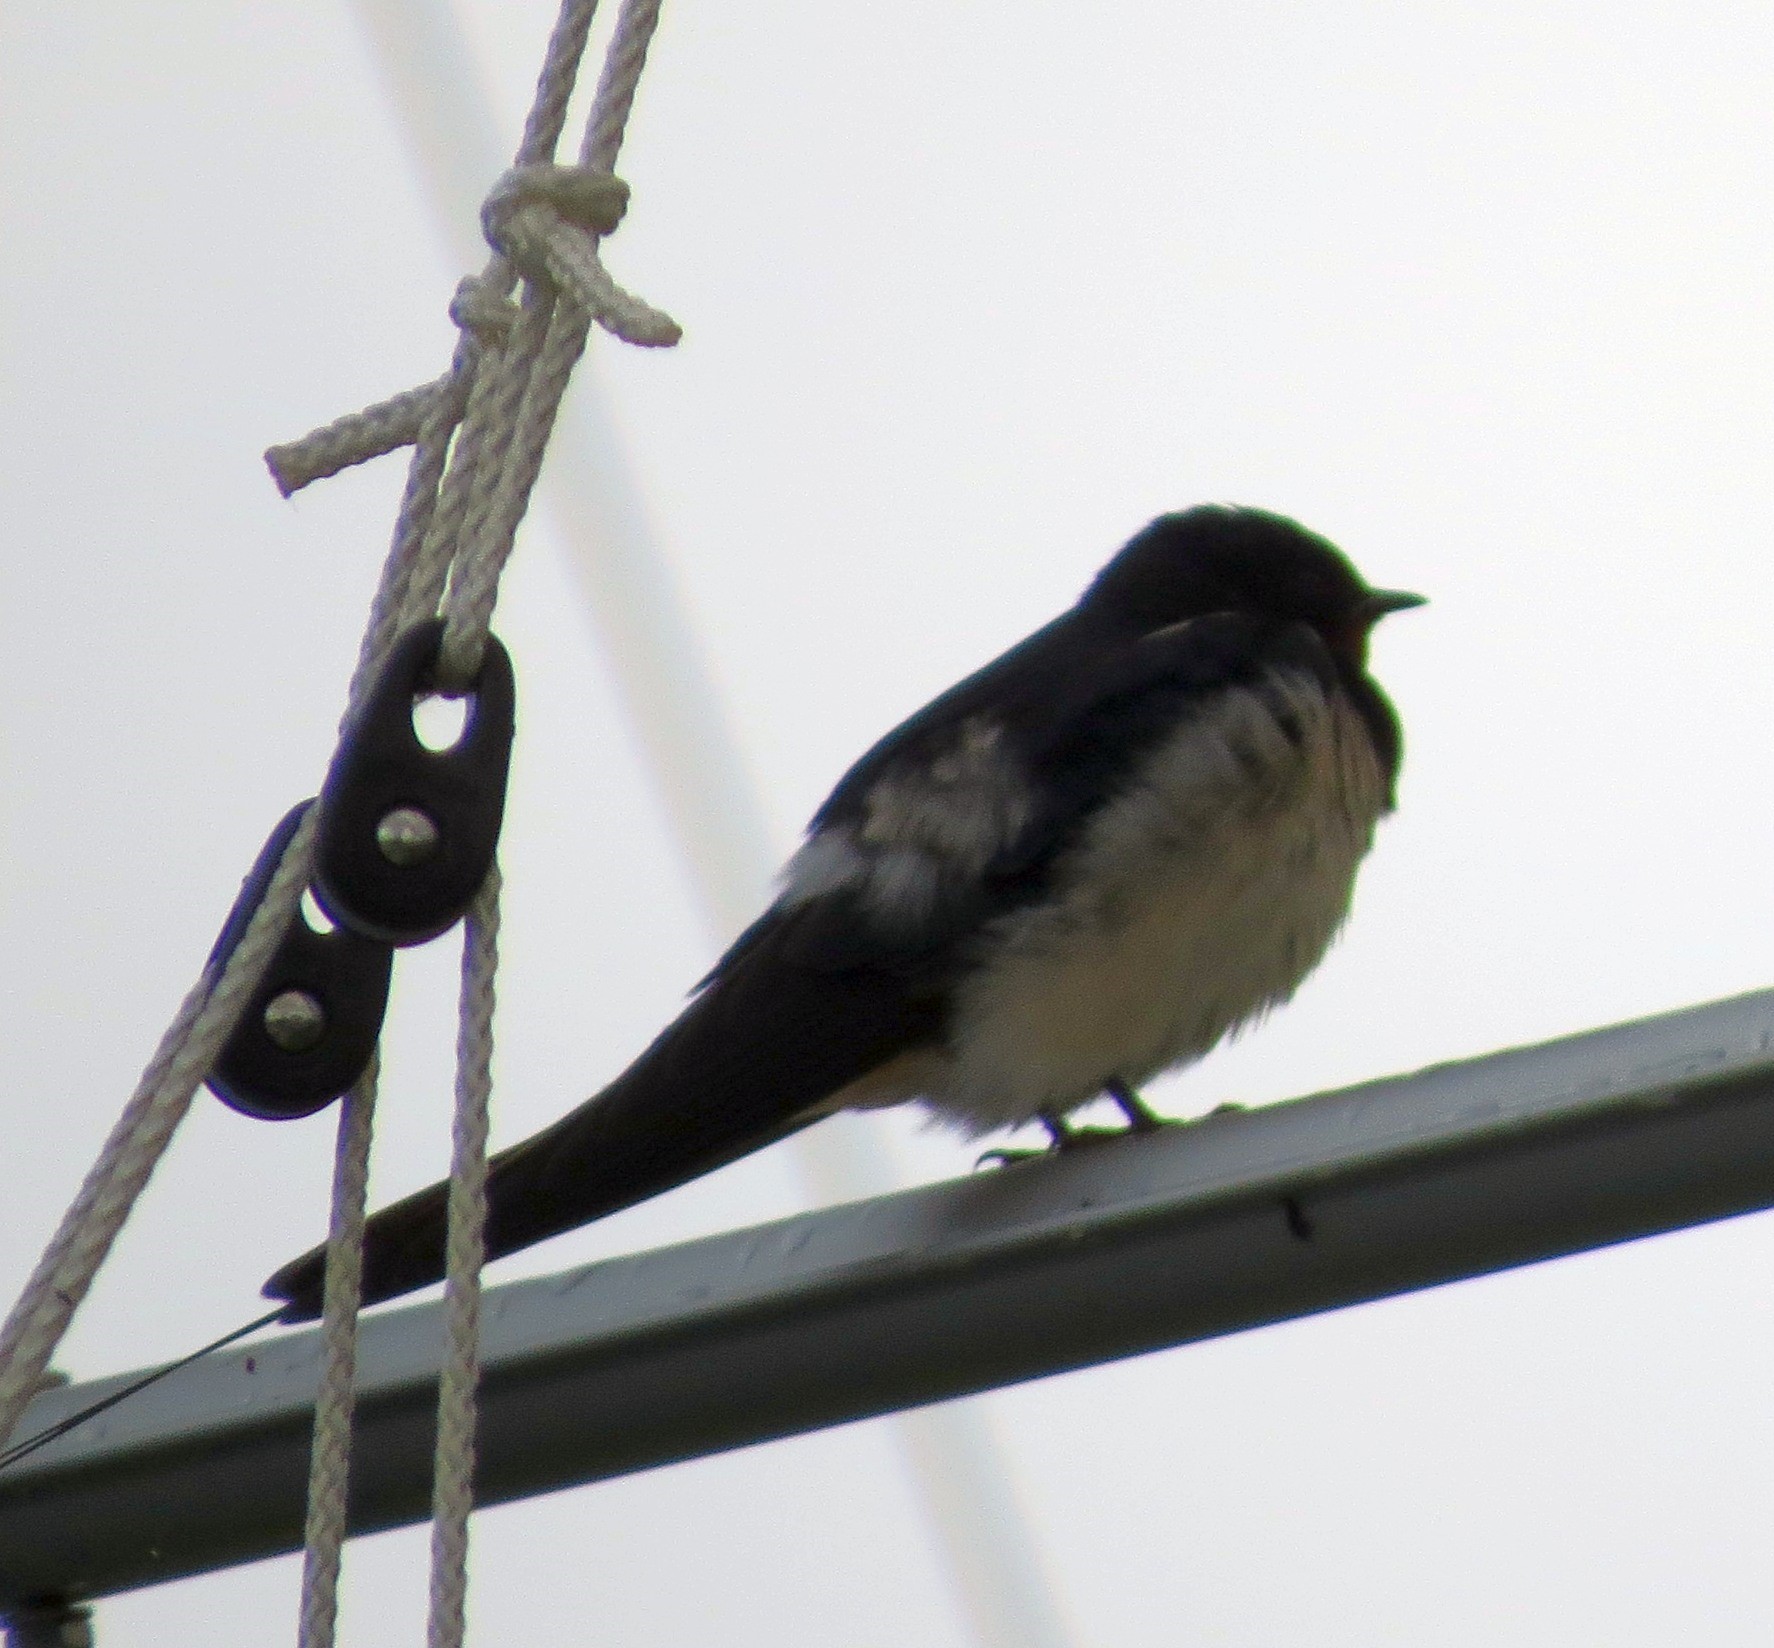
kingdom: Animalia
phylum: Chordata
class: Aves
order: Passeriformes
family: Hirundinidae
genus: Hirundo
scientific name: Hirundo rustica
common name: Barn swallow
